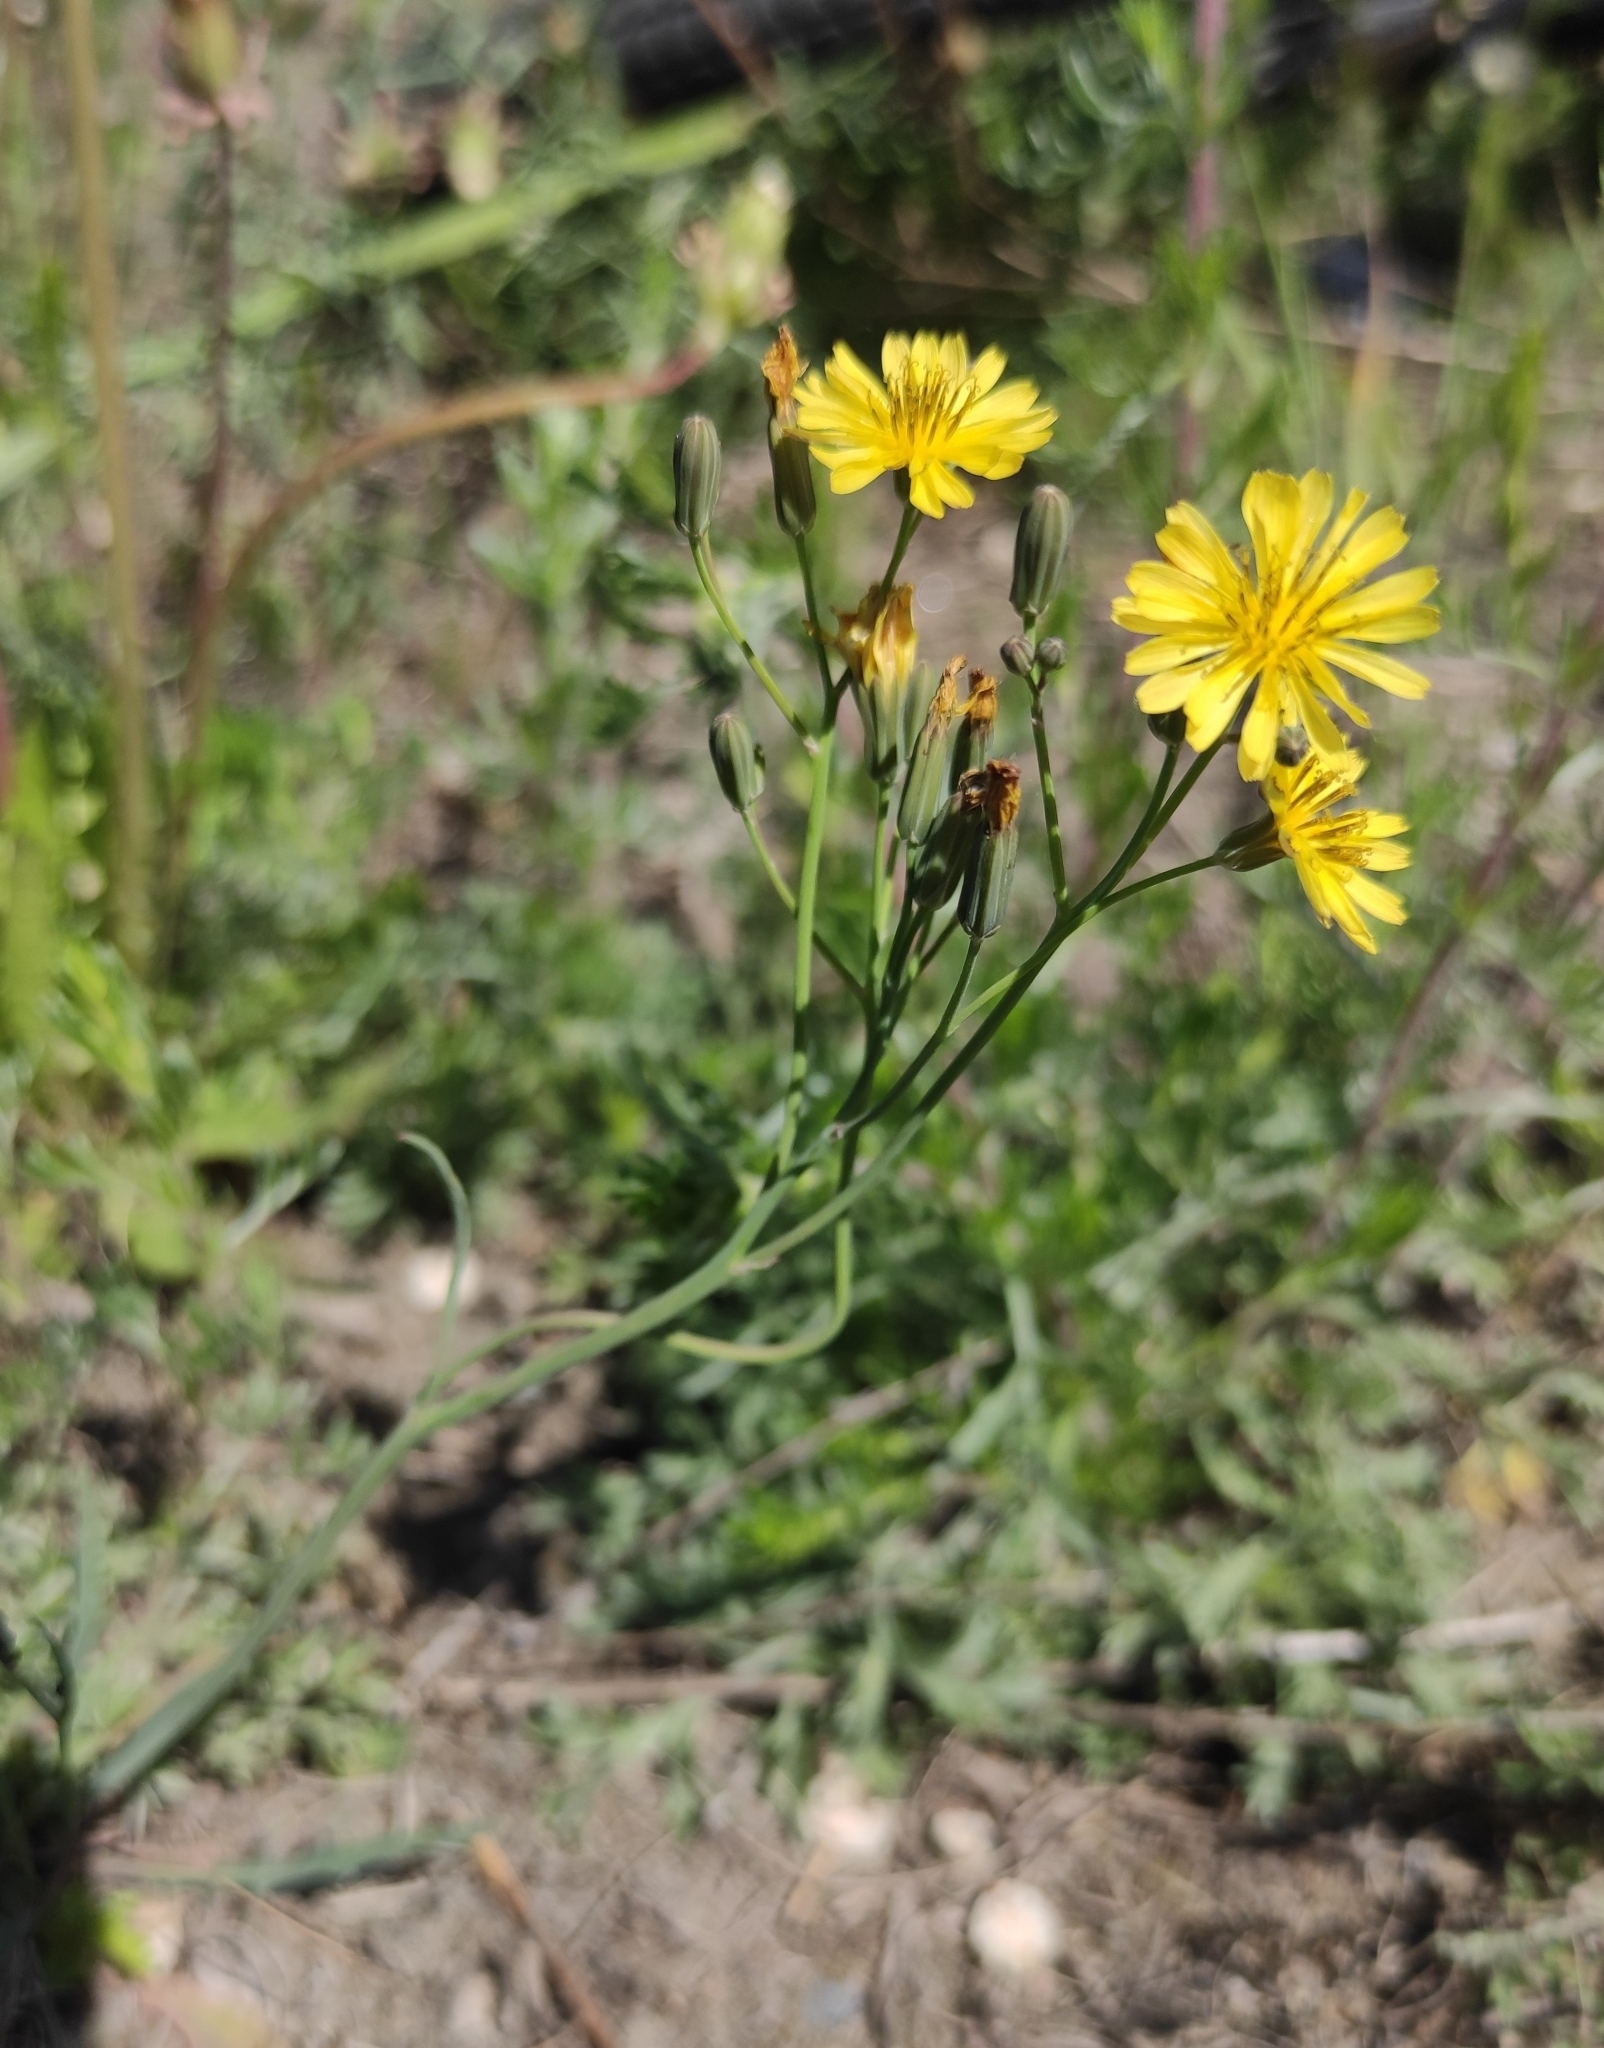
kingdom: Plantae
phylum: Tracheophyta
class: Magnoliopsida
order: Asterales
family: Asteraceae
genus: Ixeris
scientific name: Ixeris chinensis
